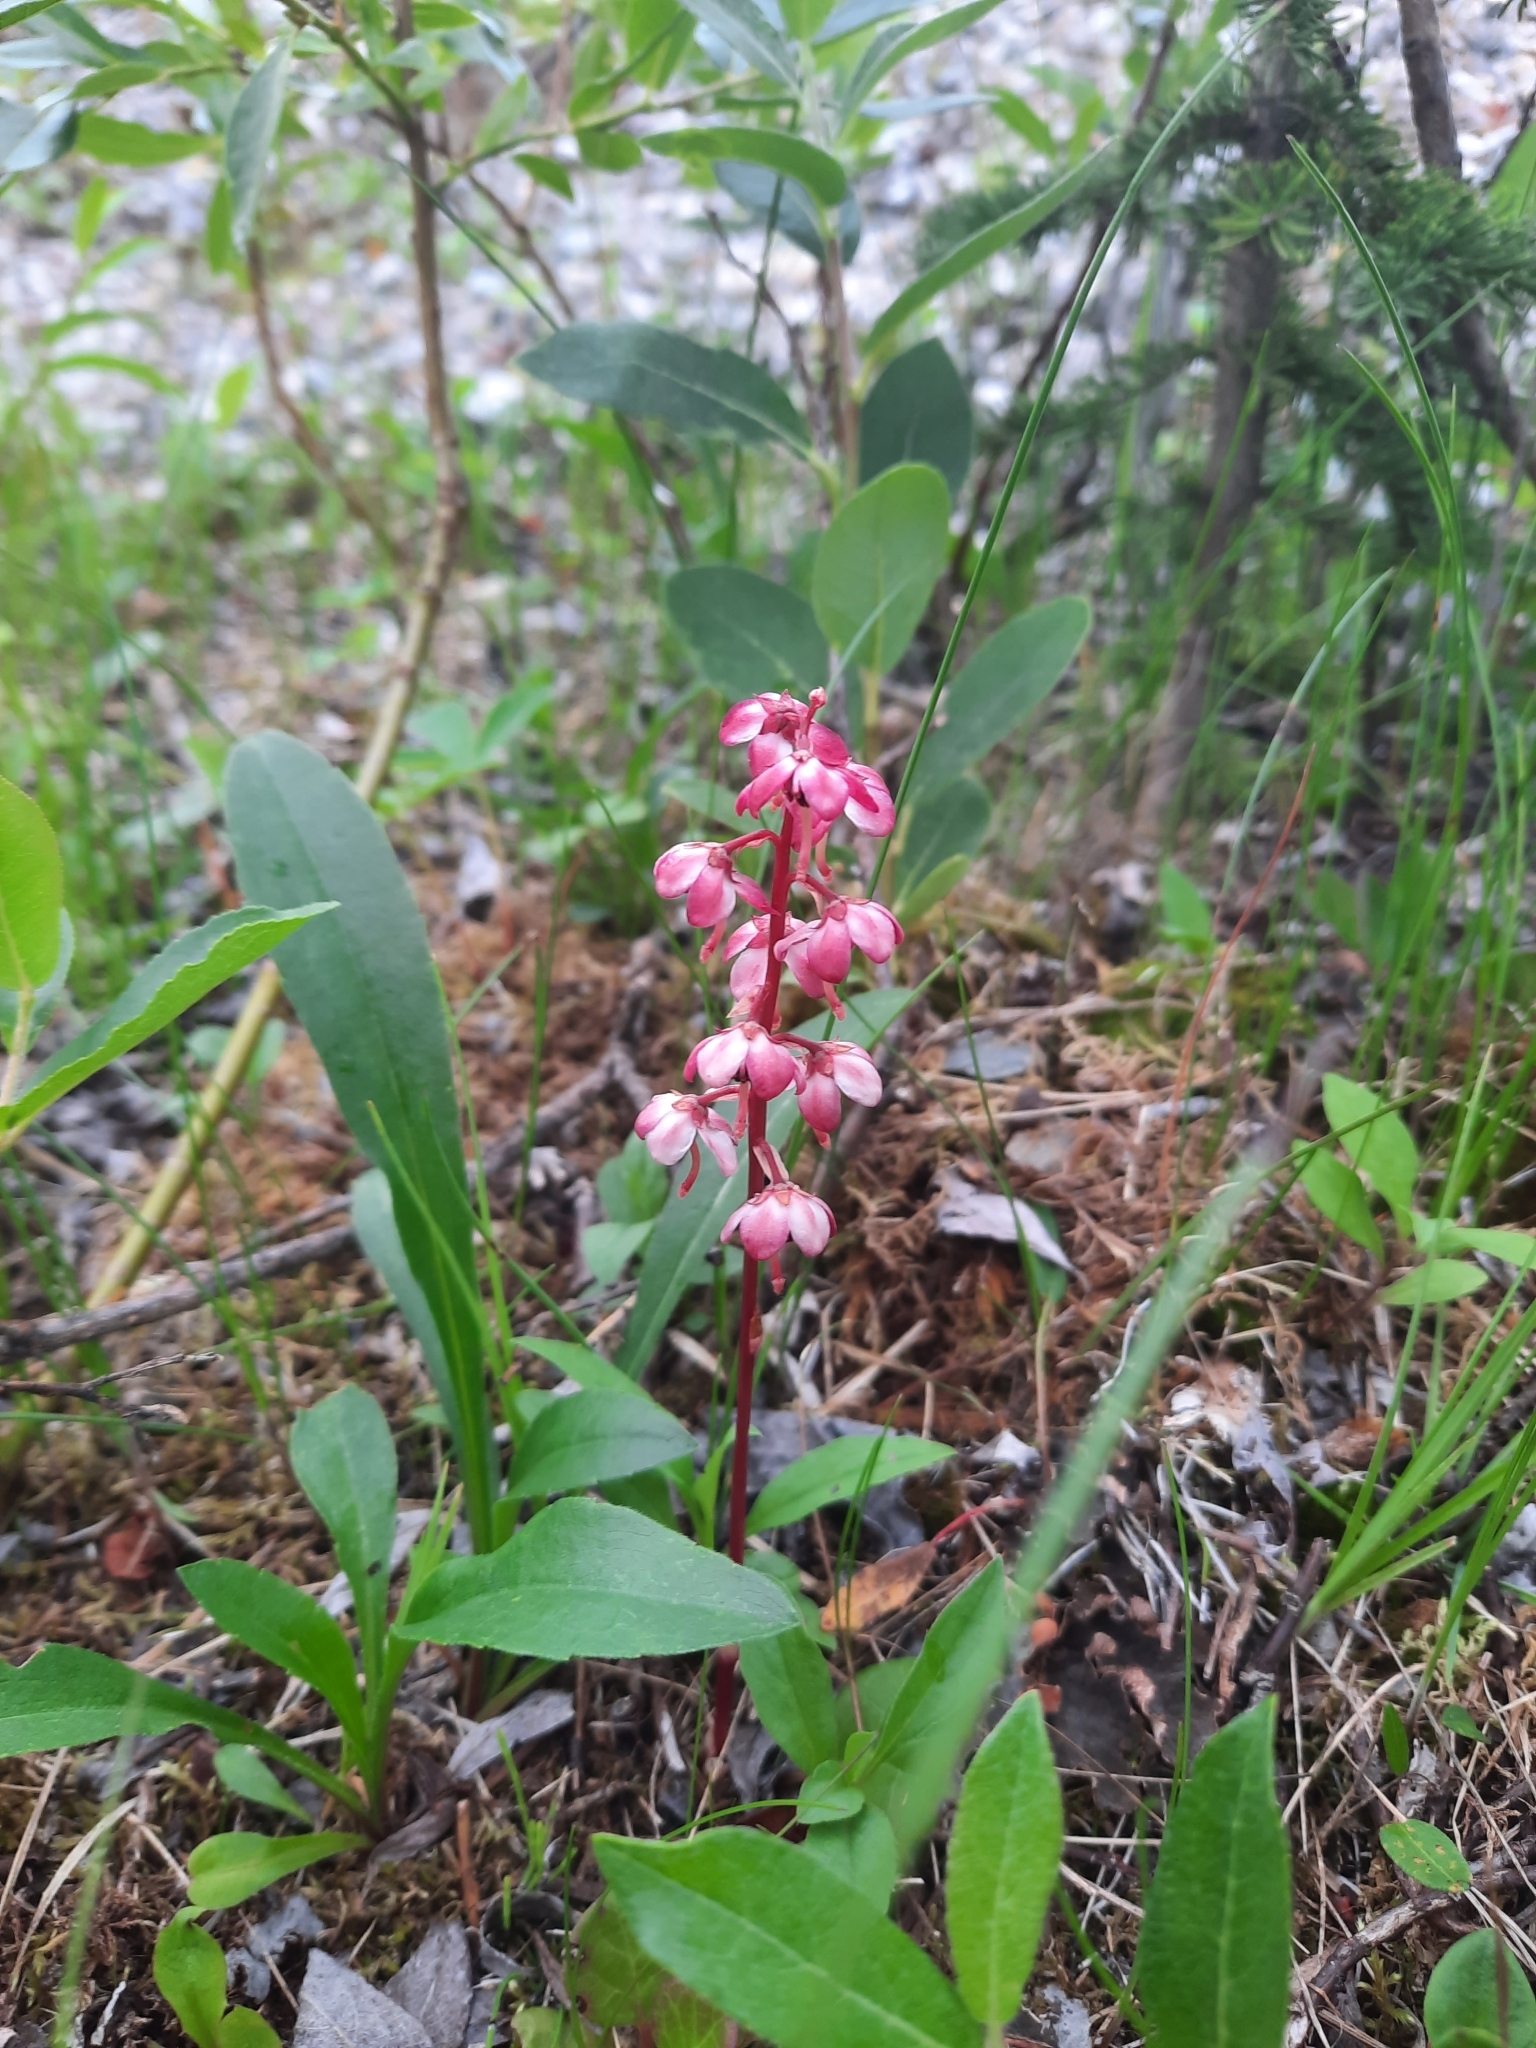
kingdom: Plantae
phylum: Tracheophyta
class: Magnoliopsida
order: Ericales
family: Ericaceae
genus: Pyrola
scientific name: Pyrola asarifolia
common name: Bog wintergreen
